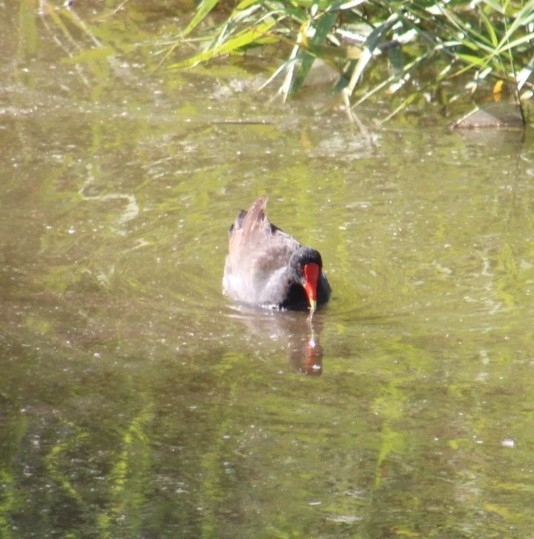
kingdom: Animalia
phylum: Chordata
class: Aves
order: Gruiformes
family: Rallidae
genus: Gallinula
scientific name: Gallinula chloropus
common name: Common moorhen
